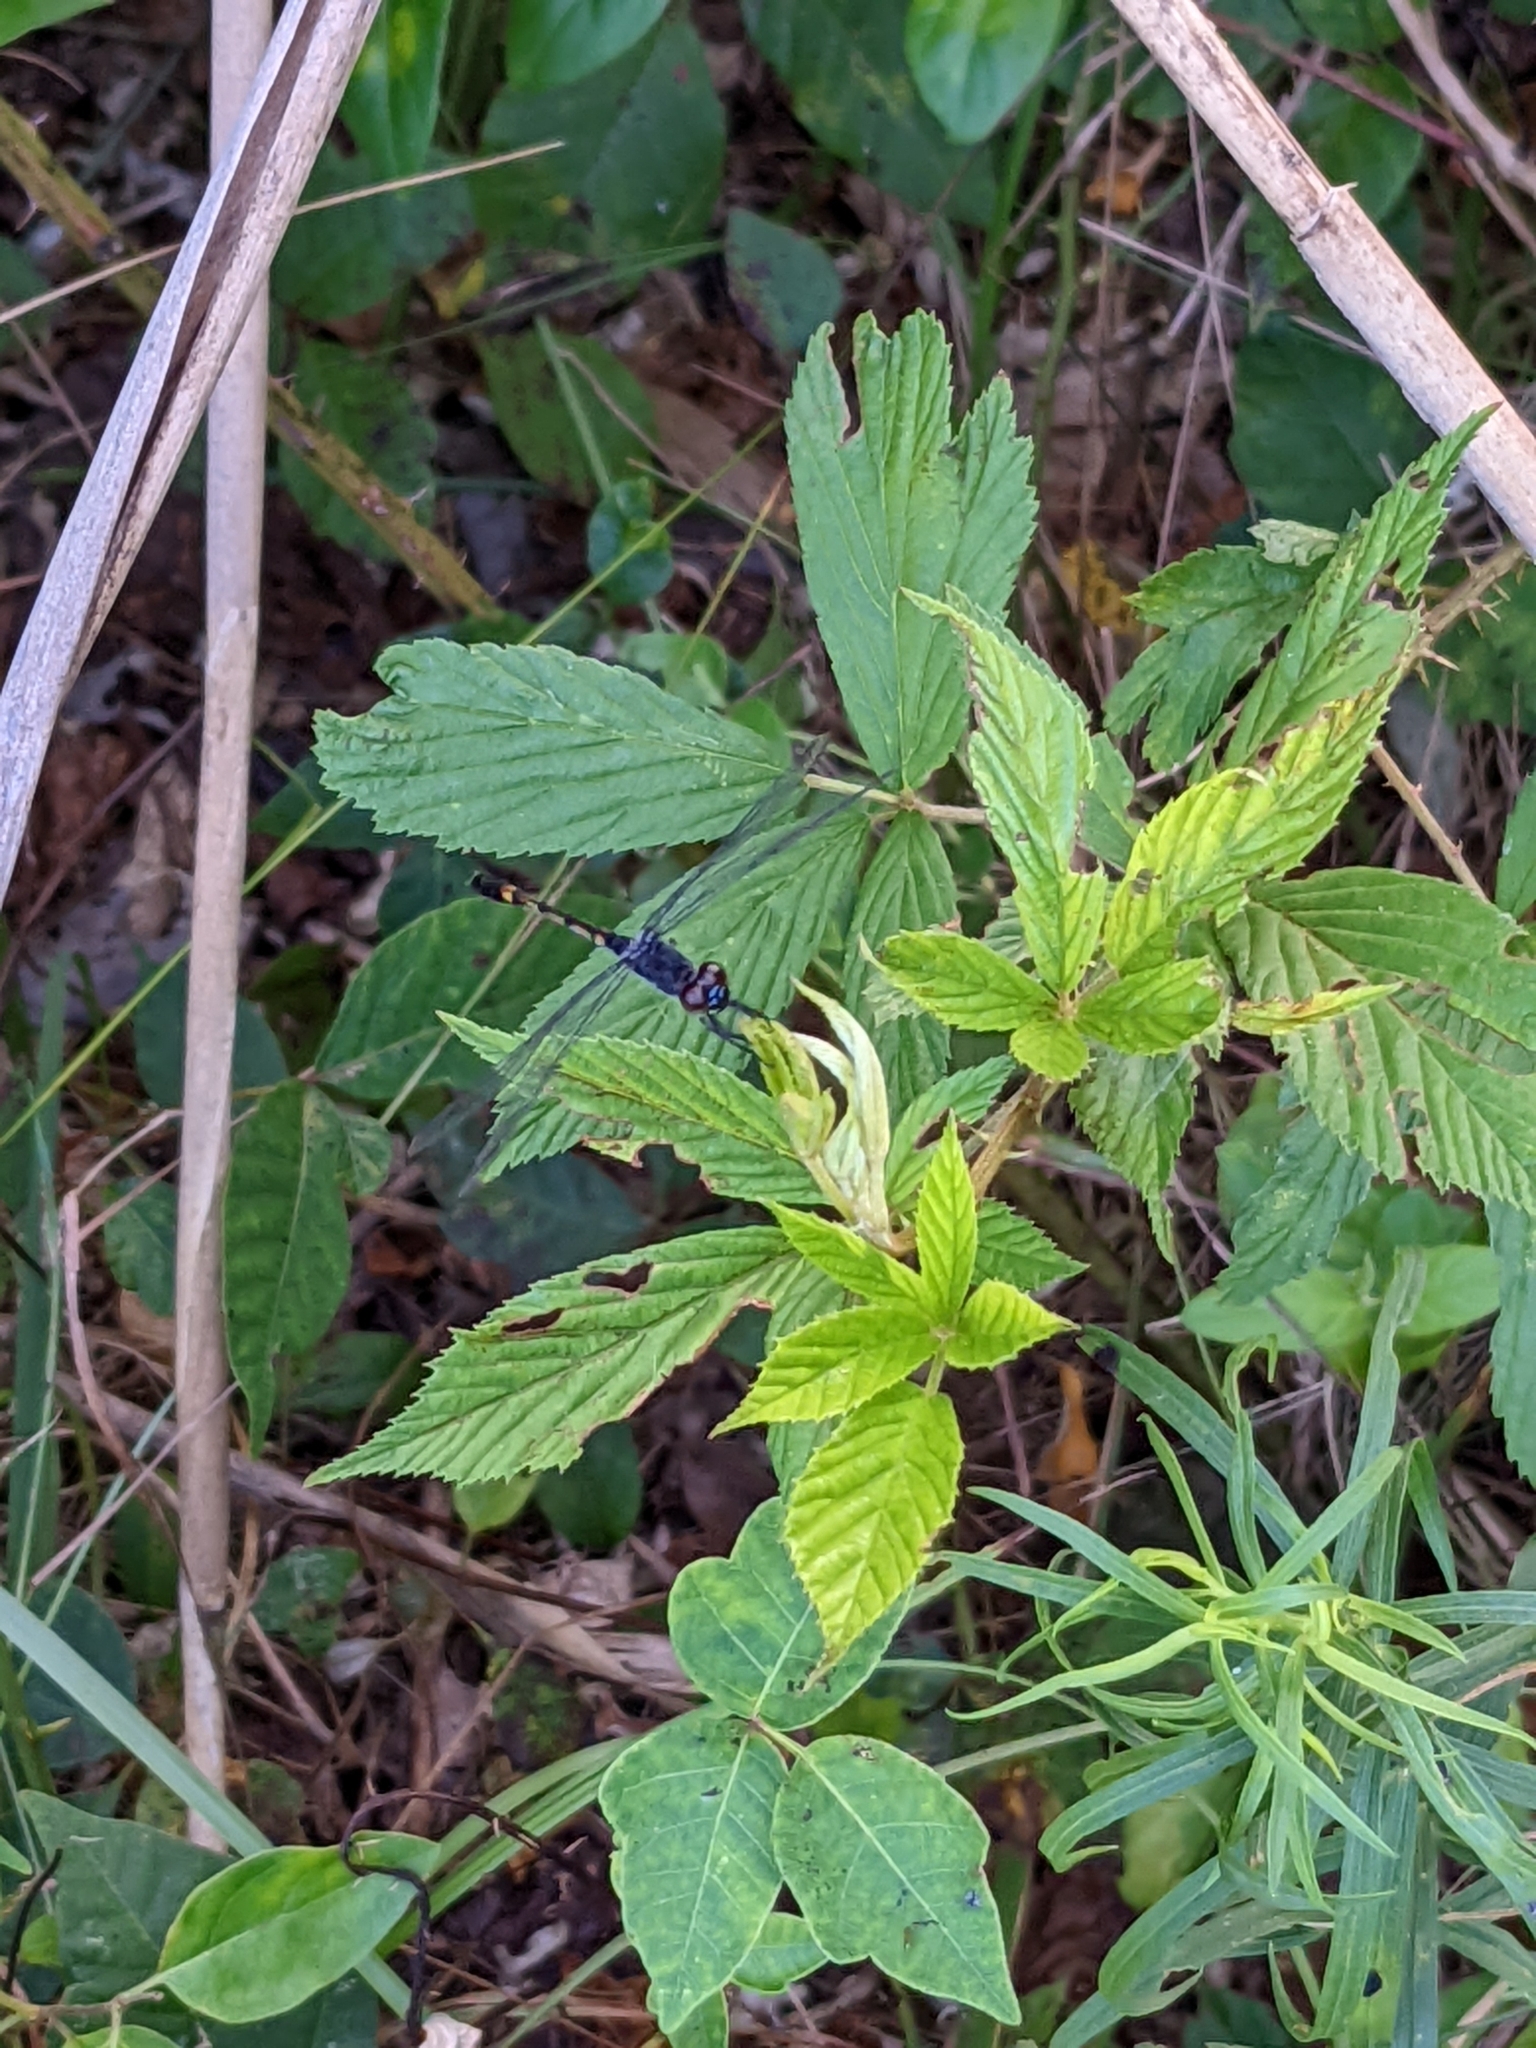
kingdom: Animalia
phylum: Arthropoda
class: Insecta
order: Odonata
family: Libellulidae
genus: Erythrodiplax
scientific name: Erythrodiplax berenice
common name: Seaside dragonlet
